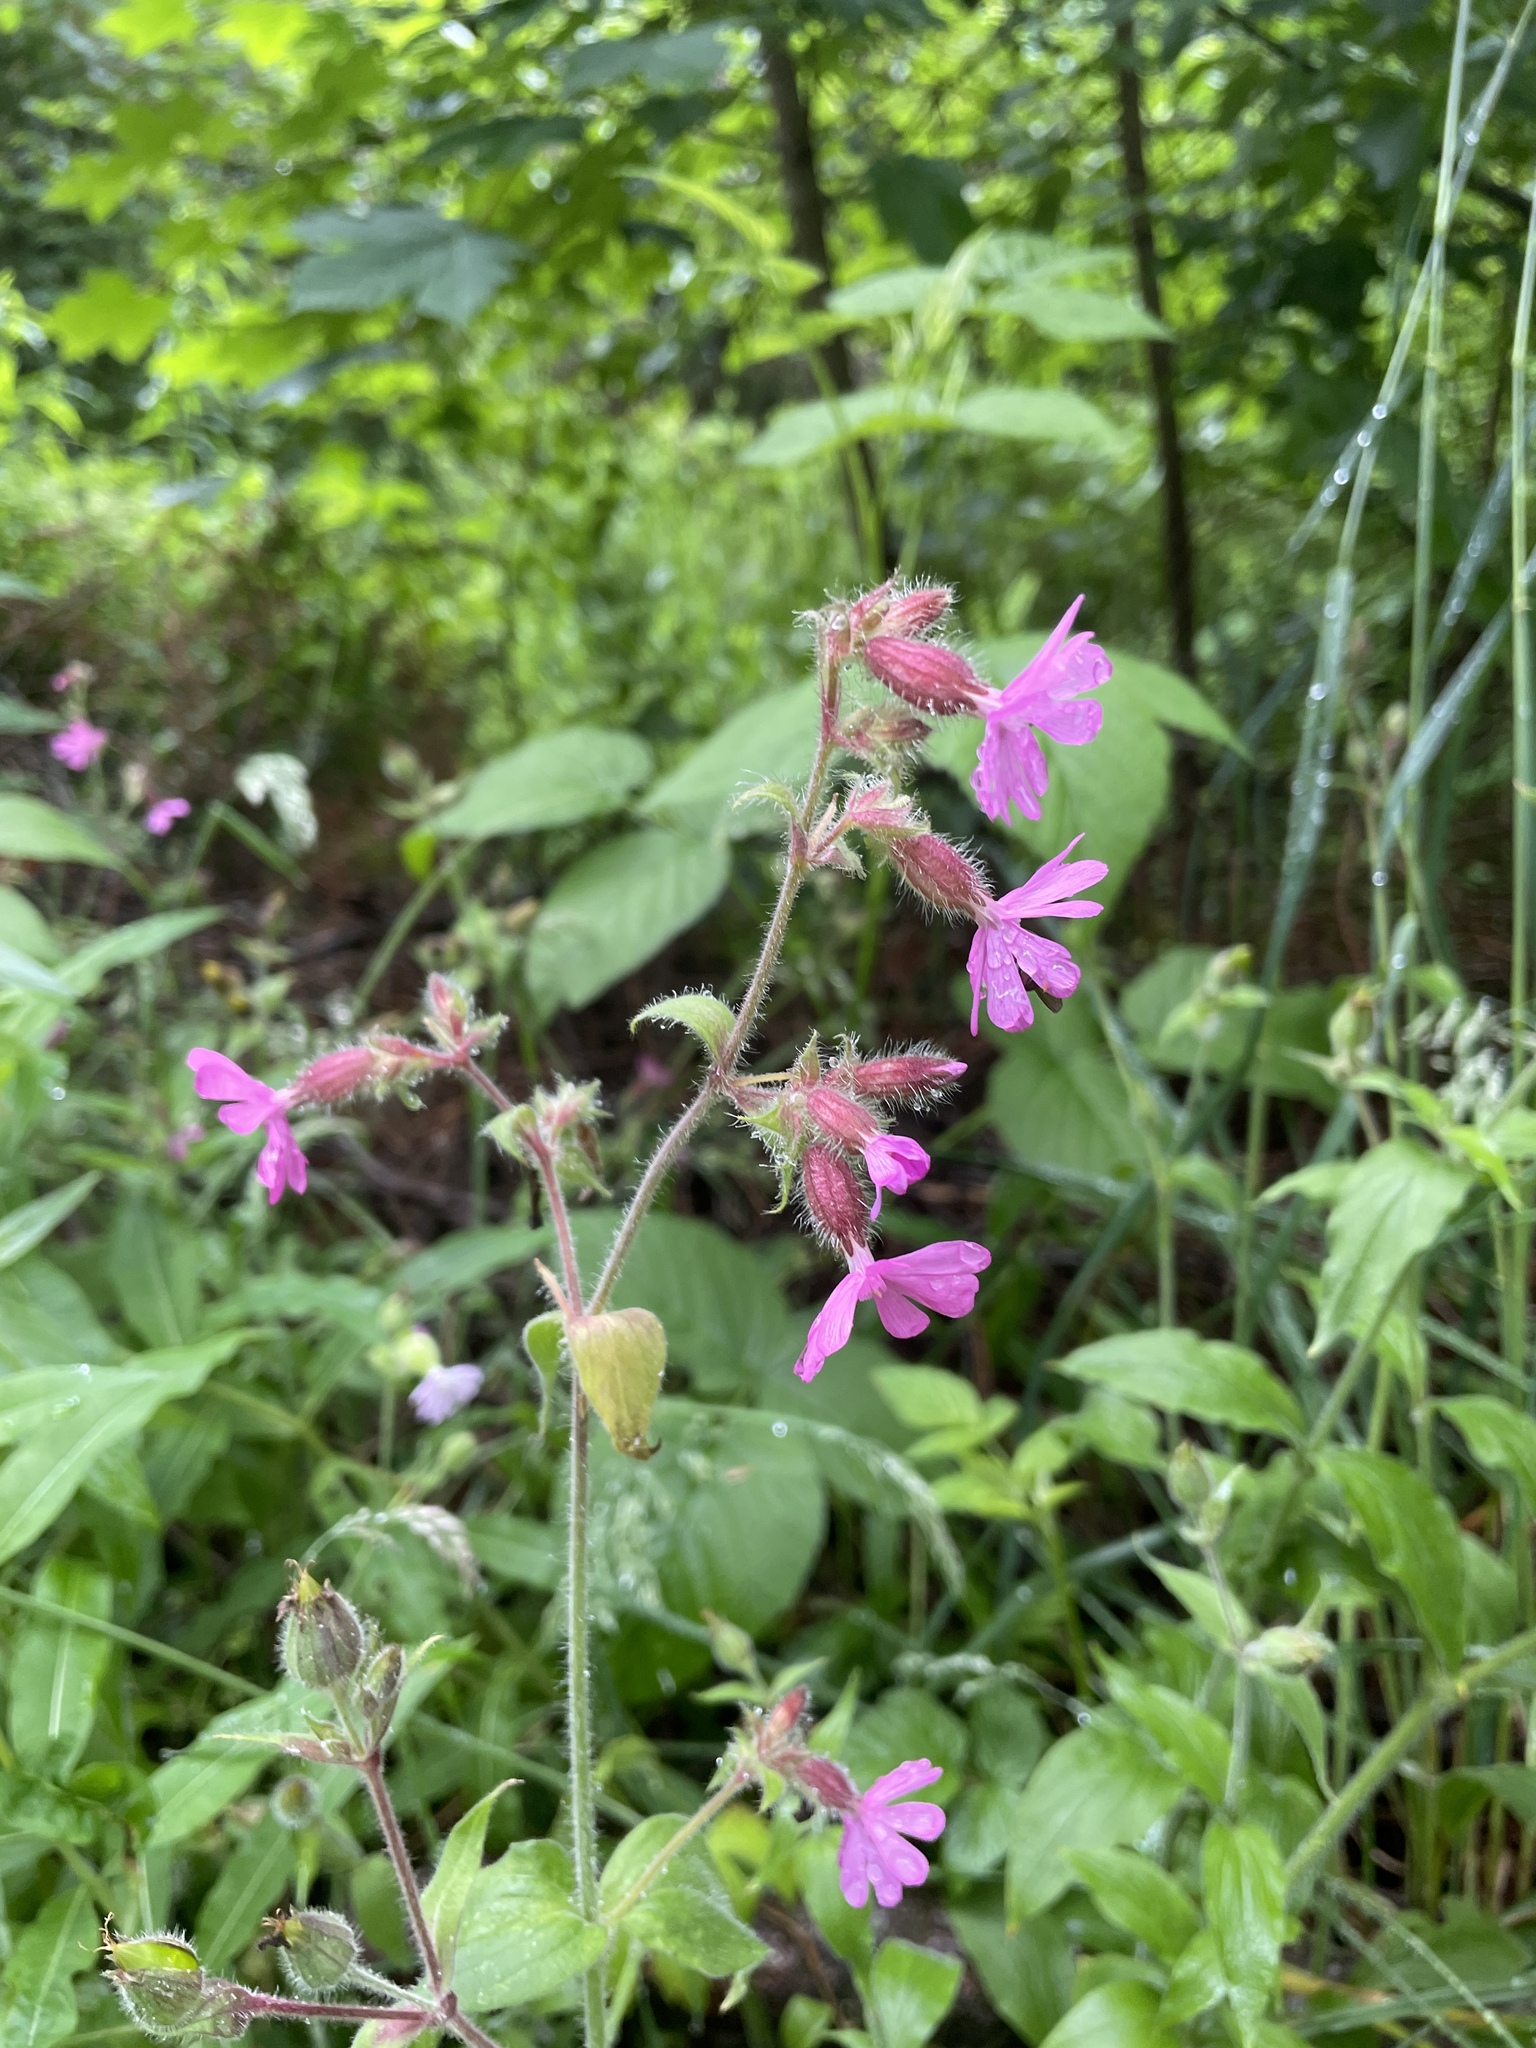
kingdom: Plantae
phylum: Tracheophyta
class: Magnoliopsida
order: Caryophyllales
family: Caryophyllaceae
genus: Silene
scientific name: Silene dioica
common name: Red campion
